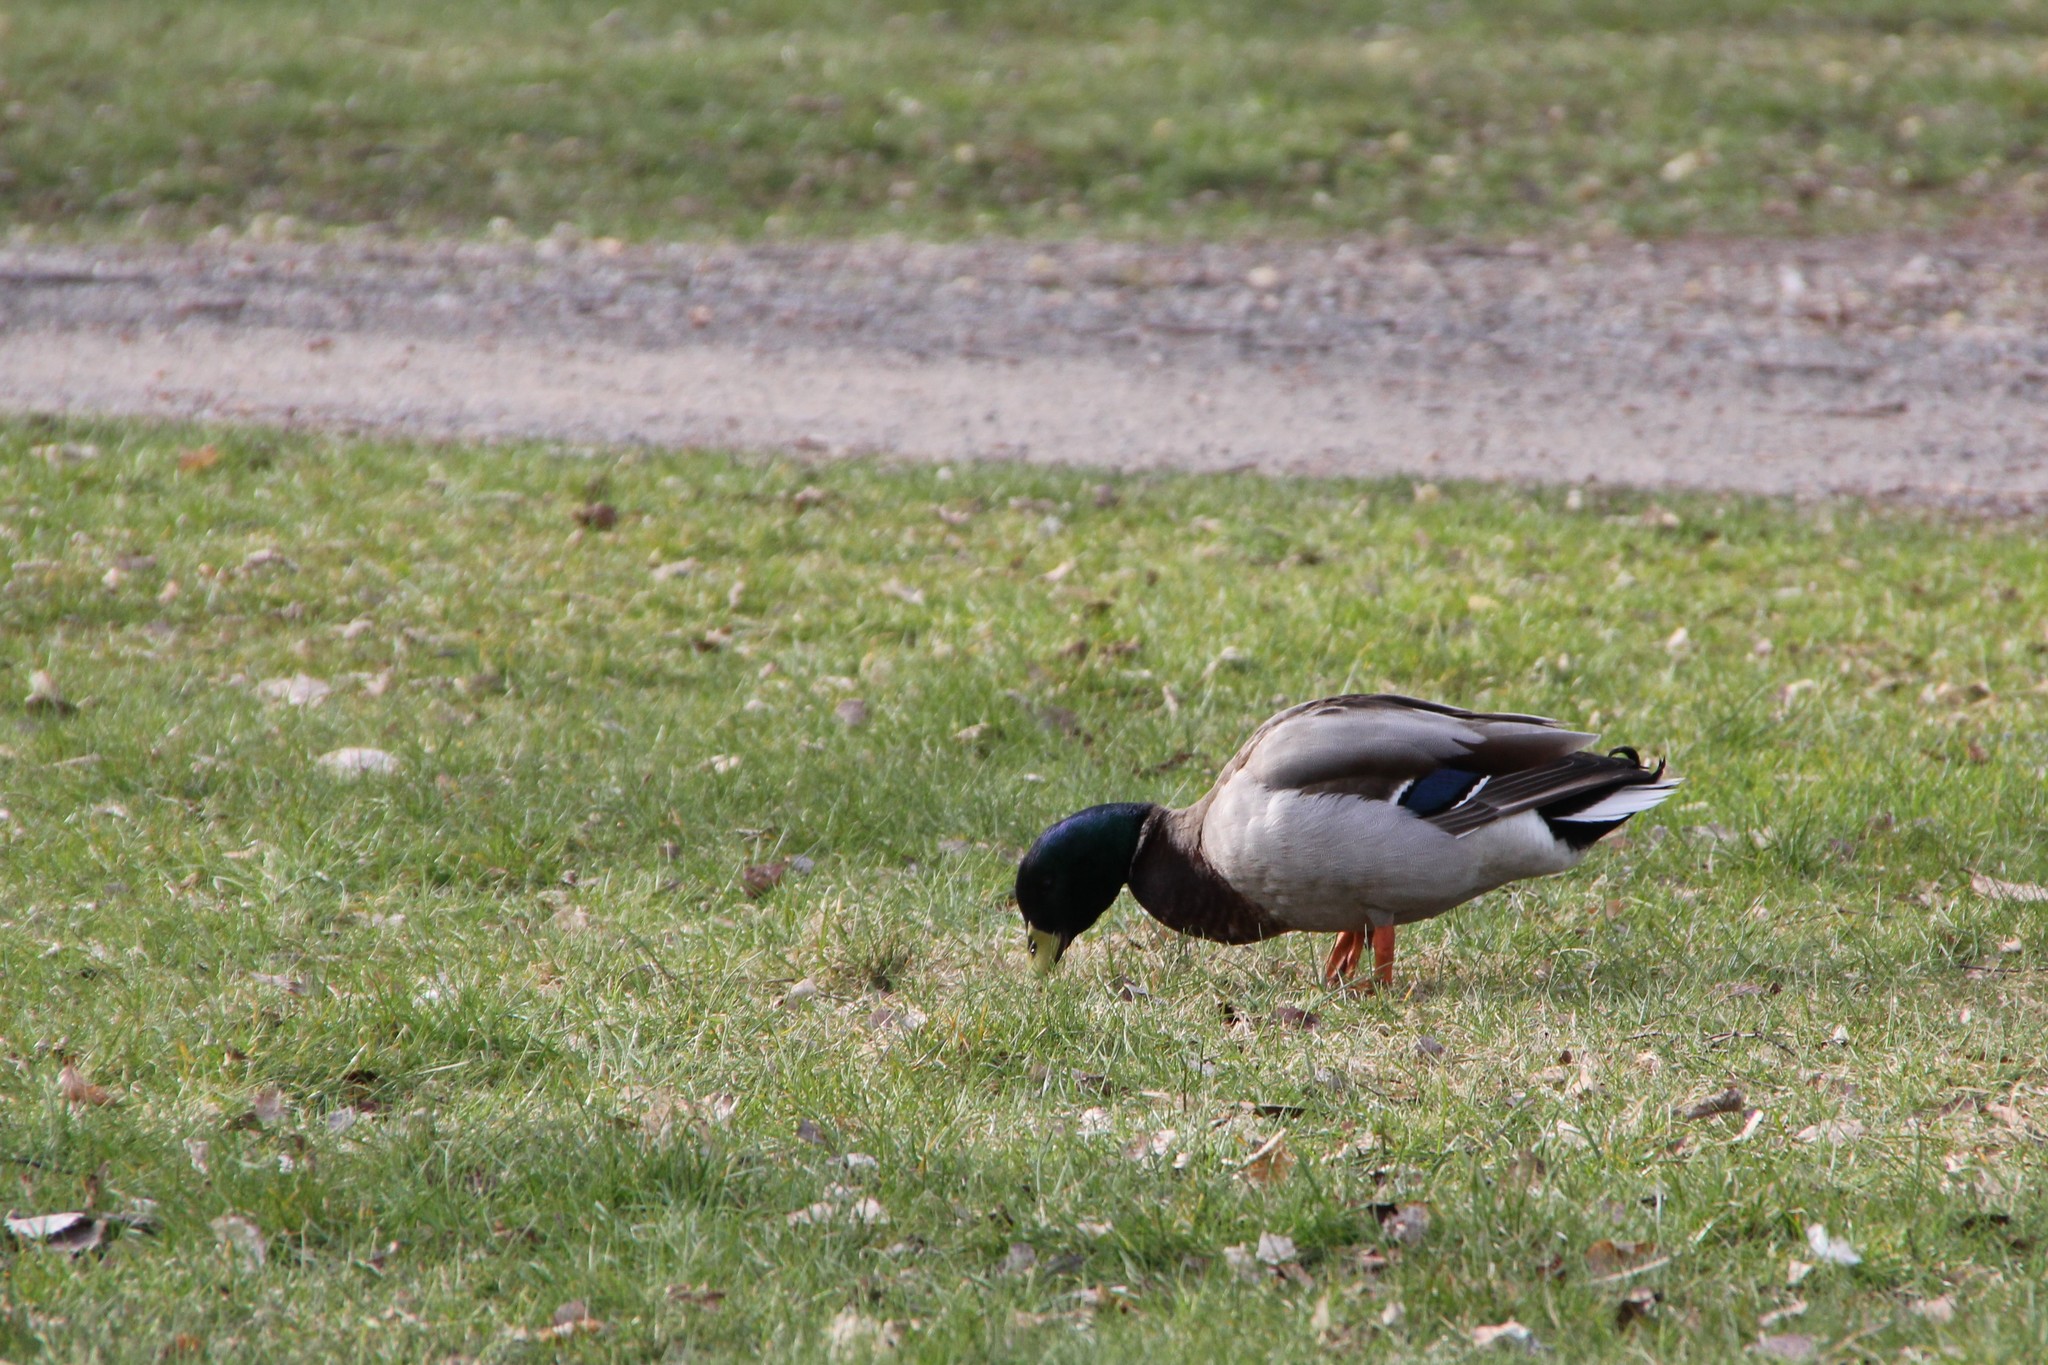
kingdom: Animalia
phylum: Chordata
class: Aves
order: Anseriformes
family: Anatidae
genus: Anas
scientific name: Anas platyrhynchos
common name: Mallard
